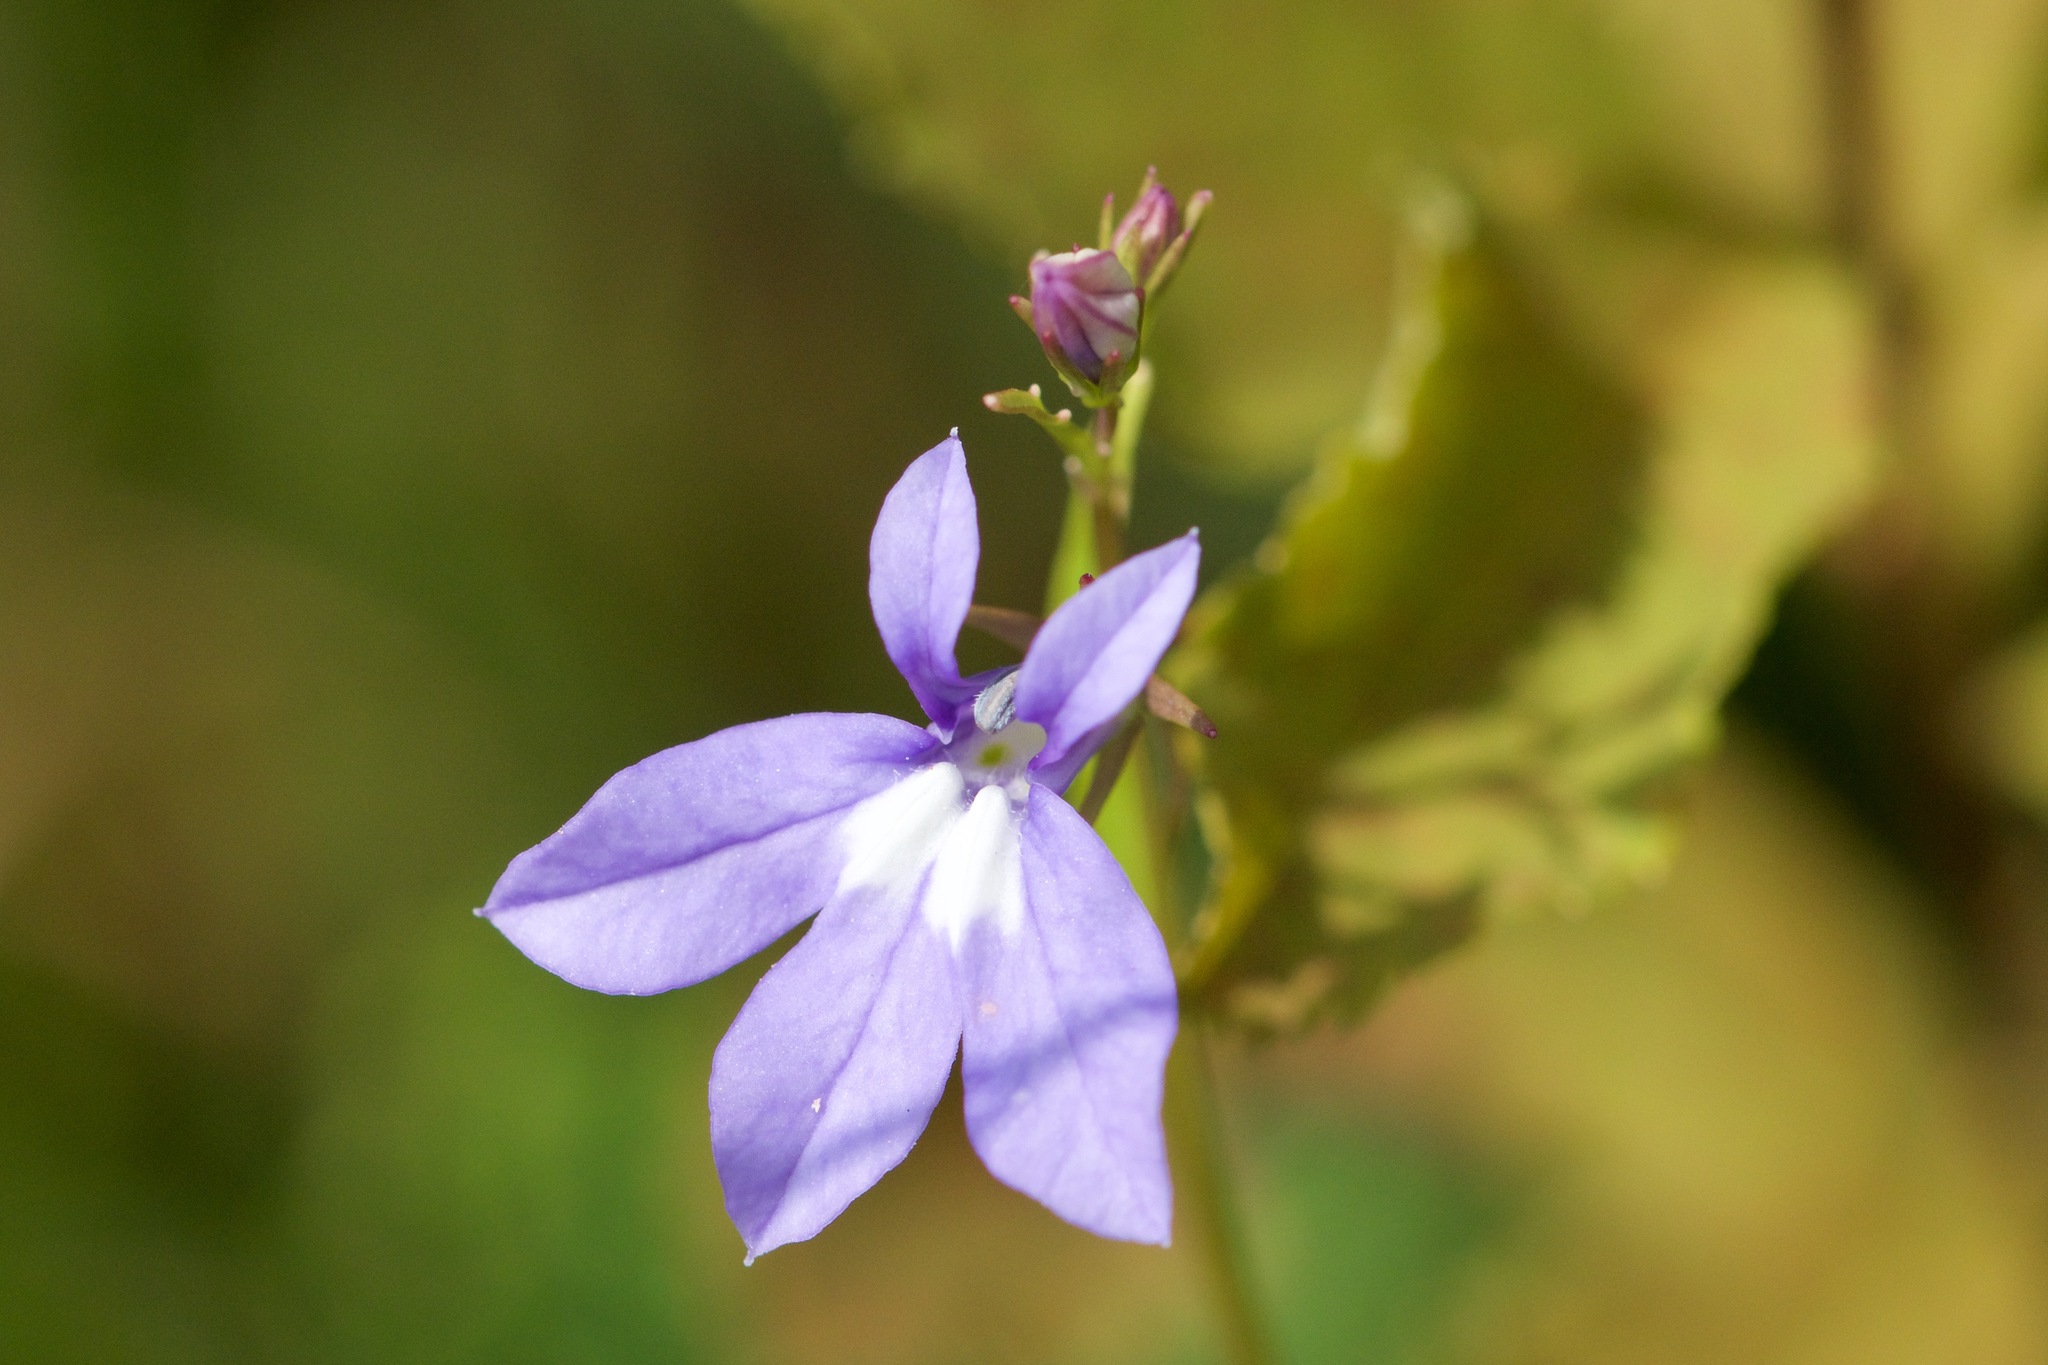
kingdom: Plantae
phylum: Tracheophyta
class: Magnoliopsida
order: Asterales
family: Campanulaceae
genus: Lobelia
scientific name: Lobelia kalmii
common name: Kalm's lobelia
